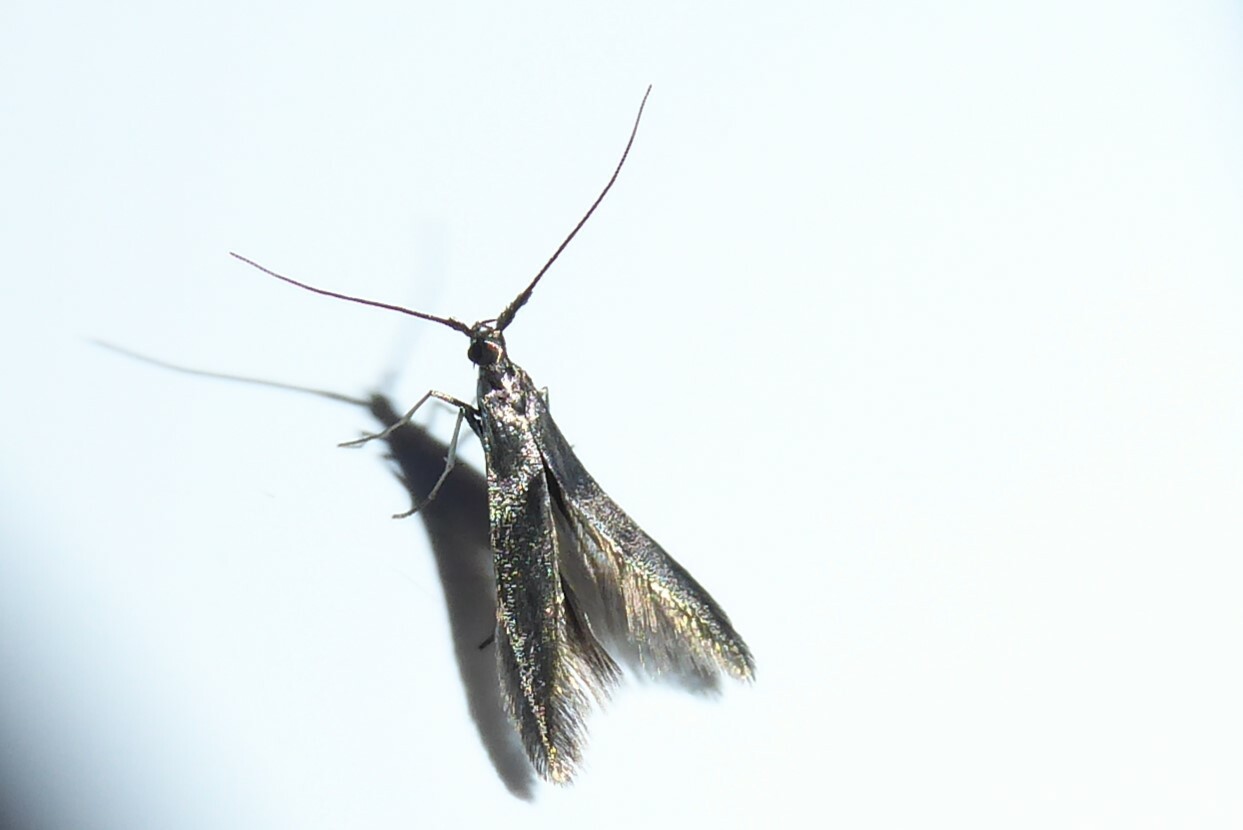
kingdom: Animalia
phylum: Arthropoda
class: Insecta
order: Lepidoptera
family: Coleophoridae
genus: Coleophora
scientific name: Coleophora alcyonipennella
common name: Clover case-bearer
